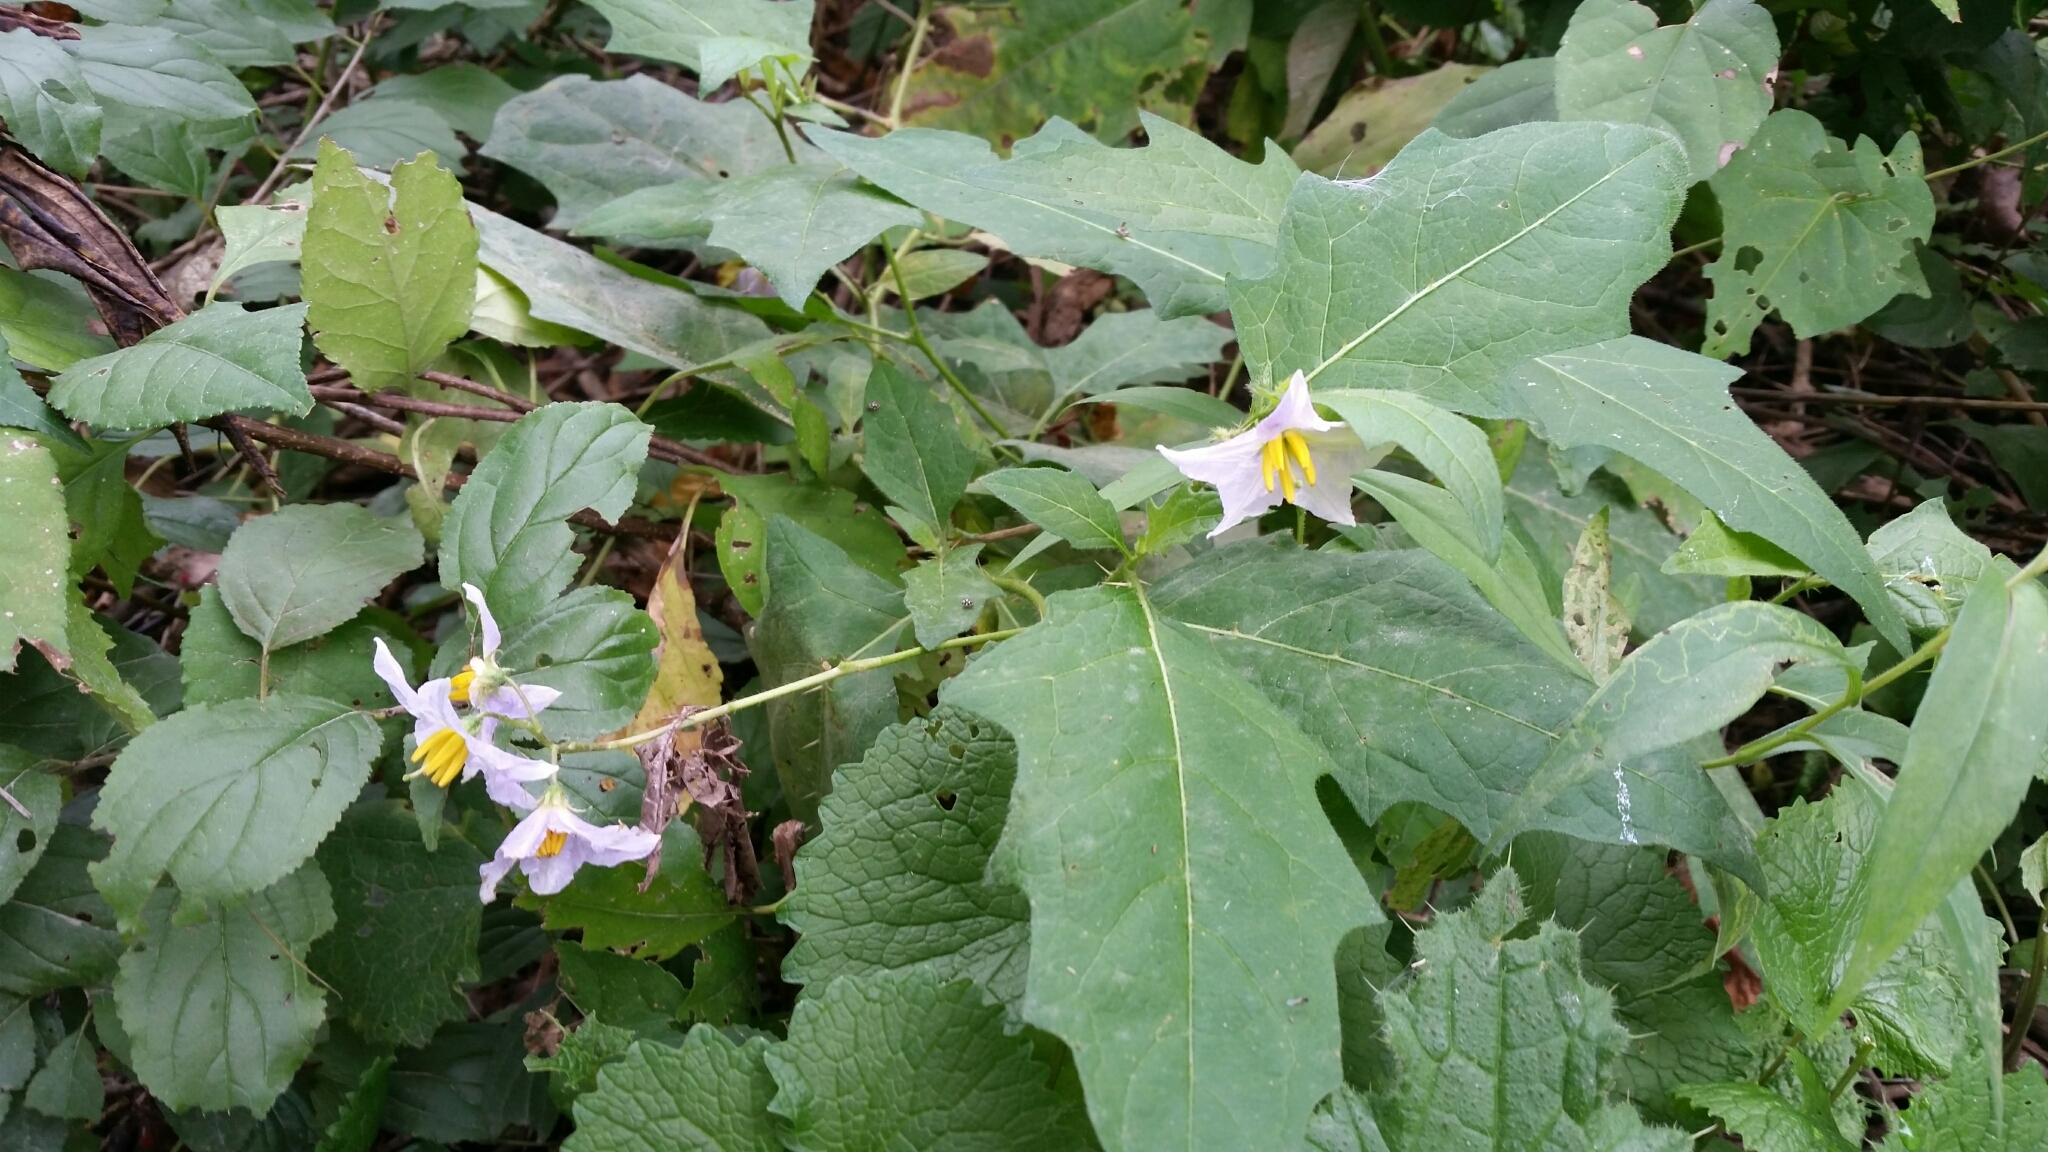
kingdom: Plantae
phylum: Tracheophyta
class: Magnoliopsida
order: Solanales
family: Solanaceae
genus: Solanum
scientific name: Solanum carolinense
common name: Horse-nettle
